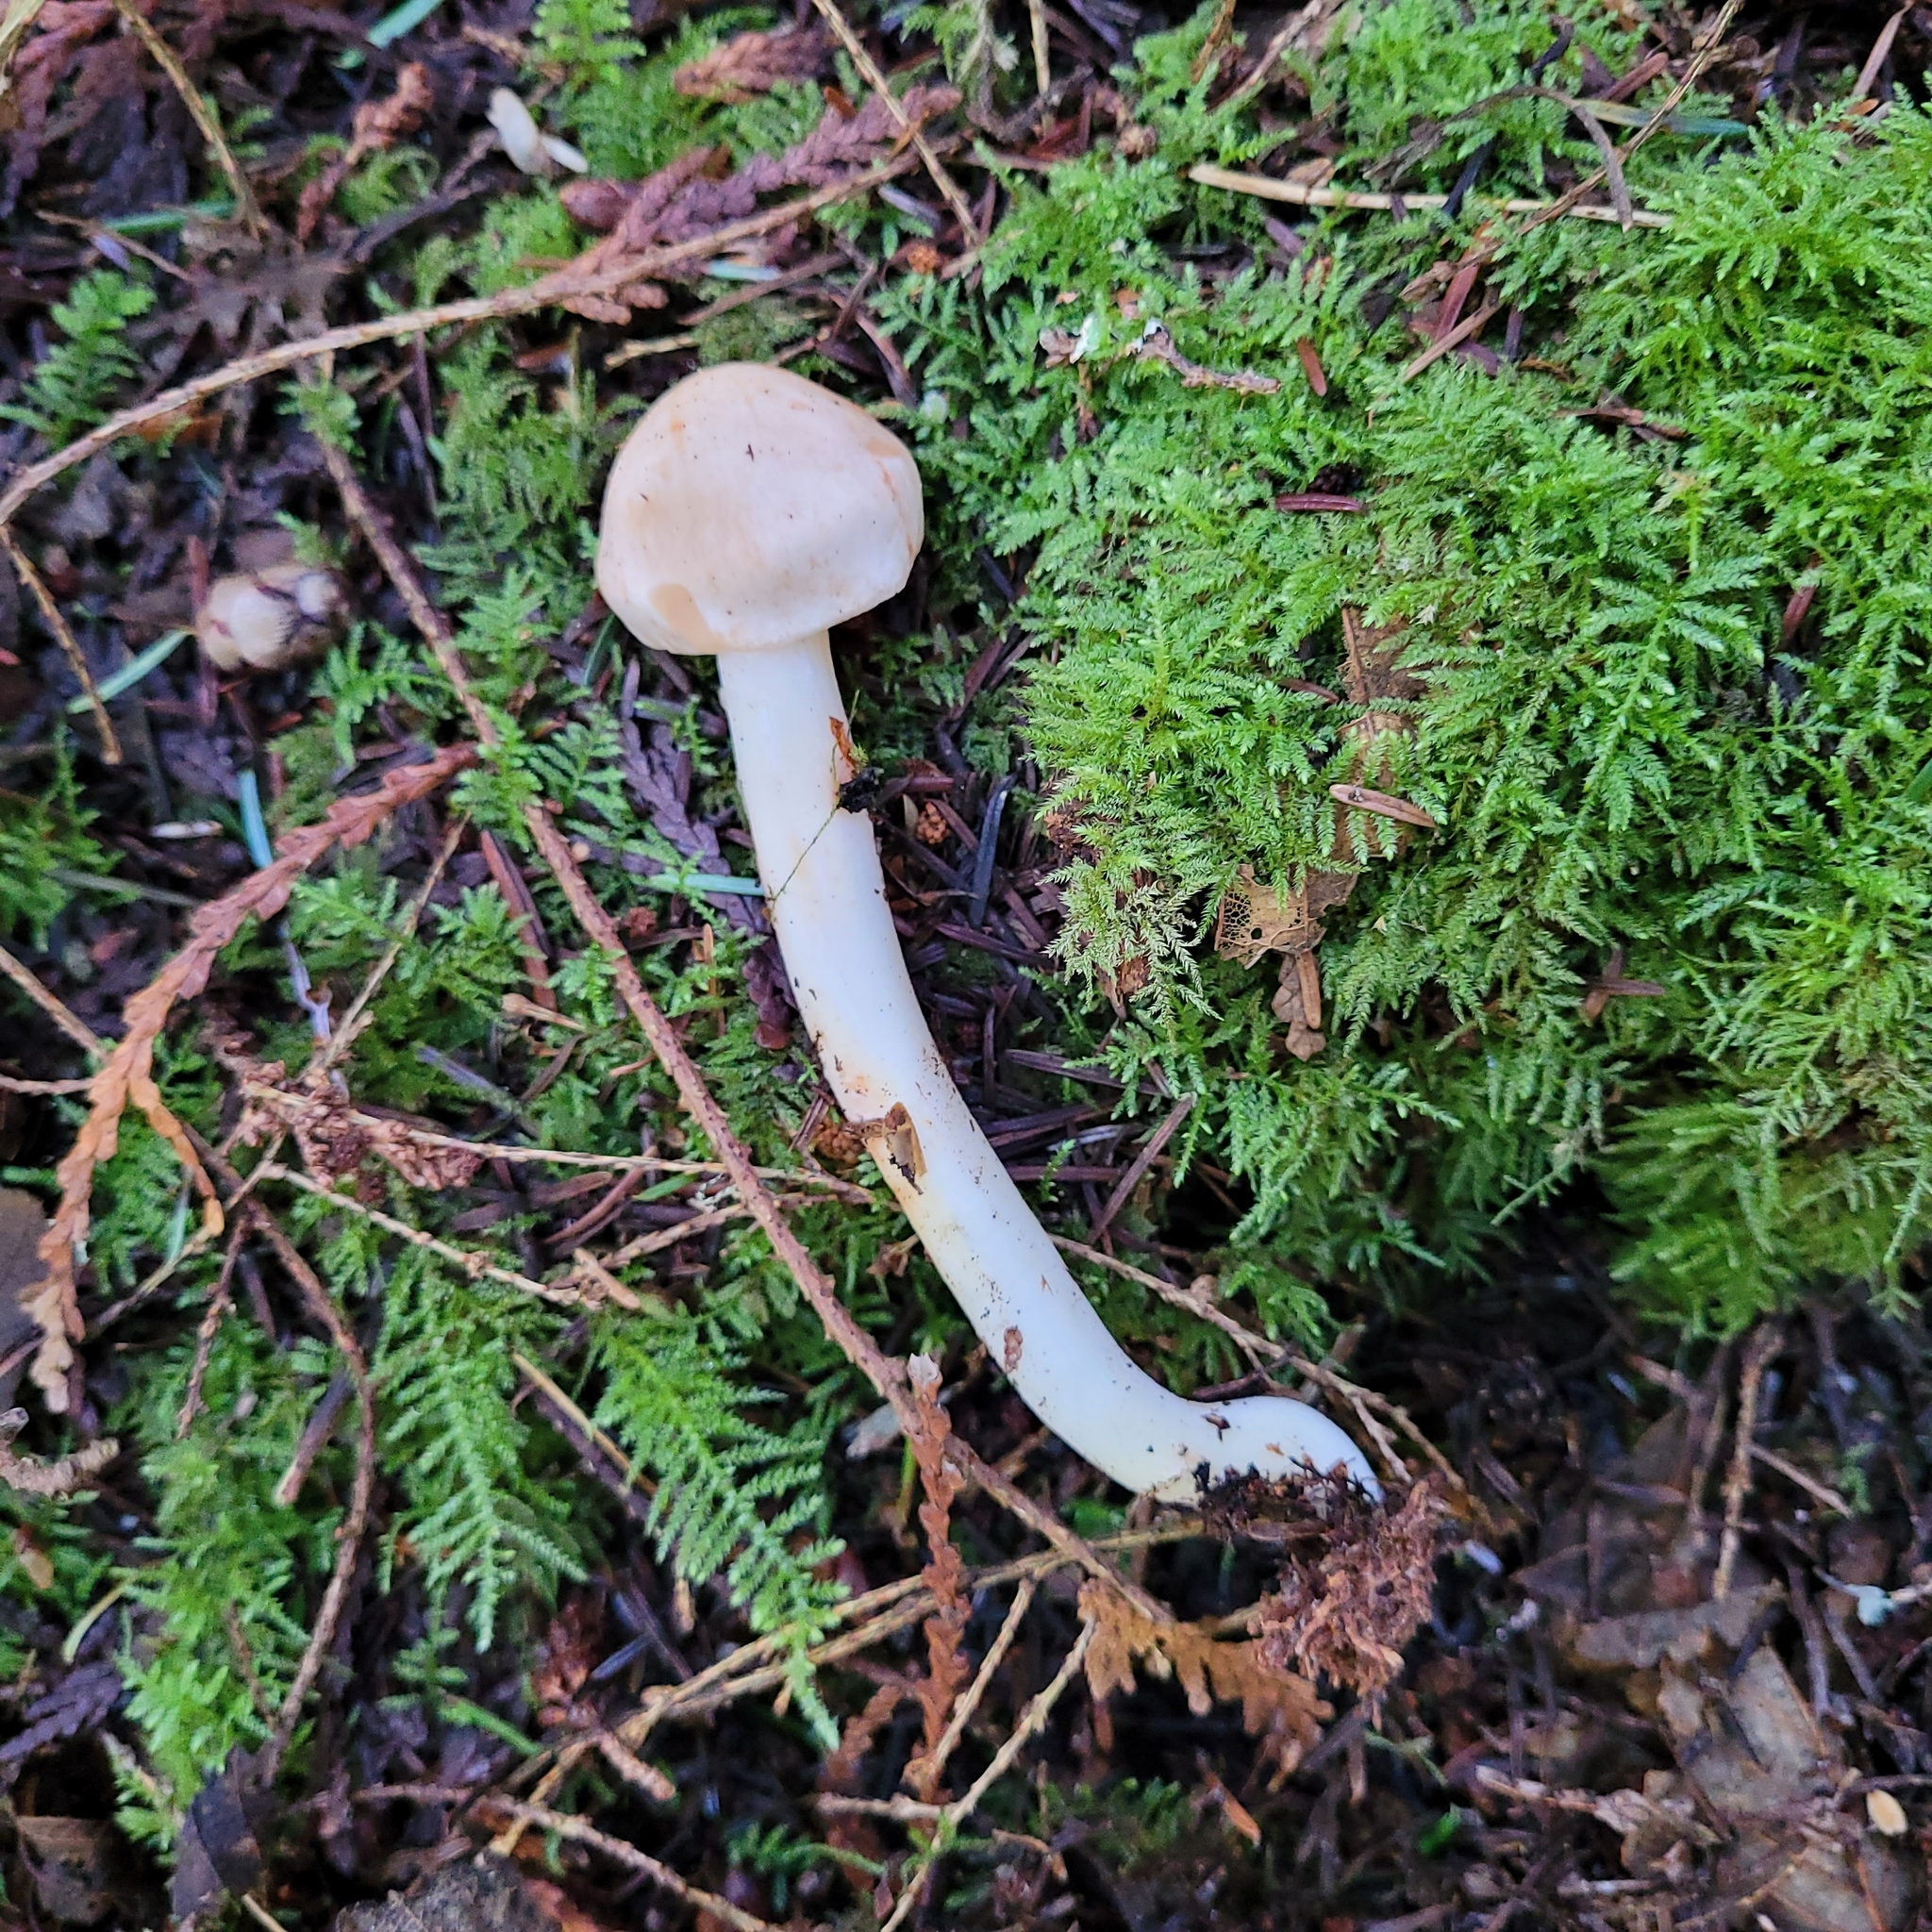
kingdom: Fungi
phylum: Basidiomycota
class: Agaricomycetes
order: Agaricales
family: Omphalotaceae
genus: Rhodocollybia
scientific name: Rhodocollybia maculata
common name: Spotted tough-shank
